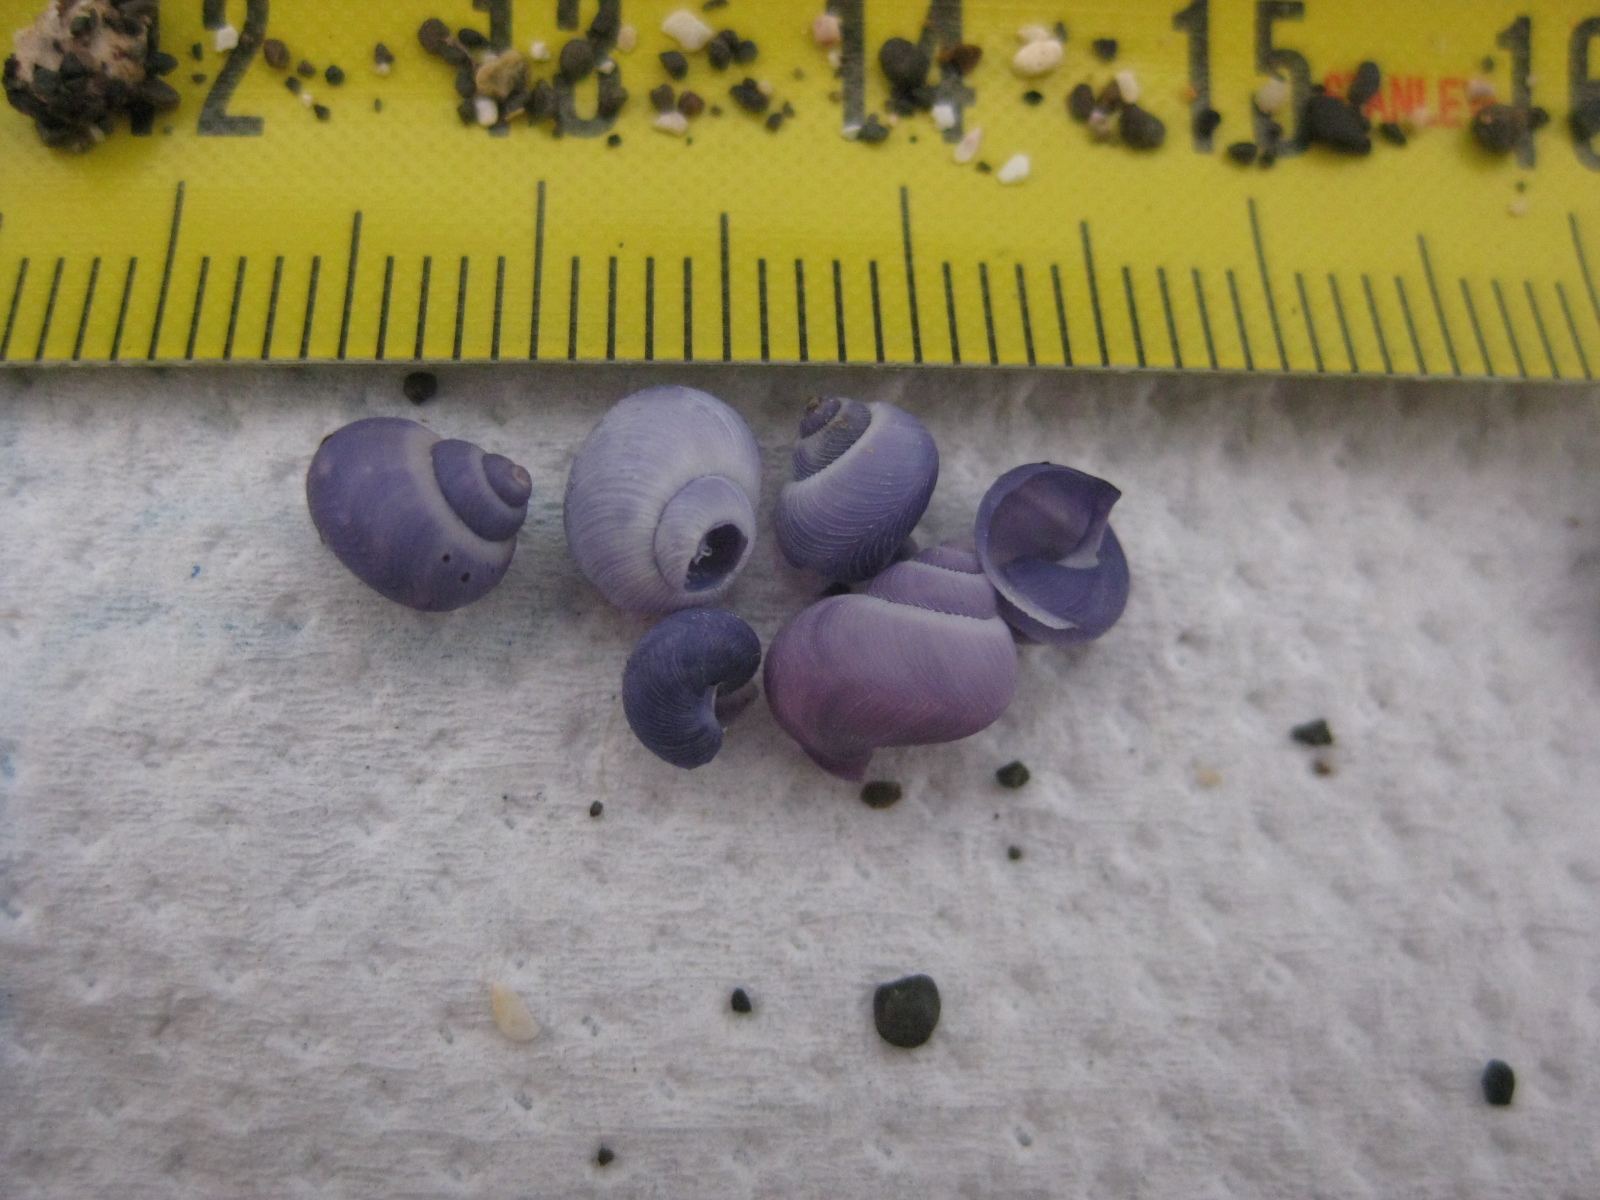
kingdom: Animalia
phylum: Mollusca
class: Gastropoda
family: Epitoniidae
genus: Janthina
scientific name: Janthina exigua
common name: Dwarf janthina
